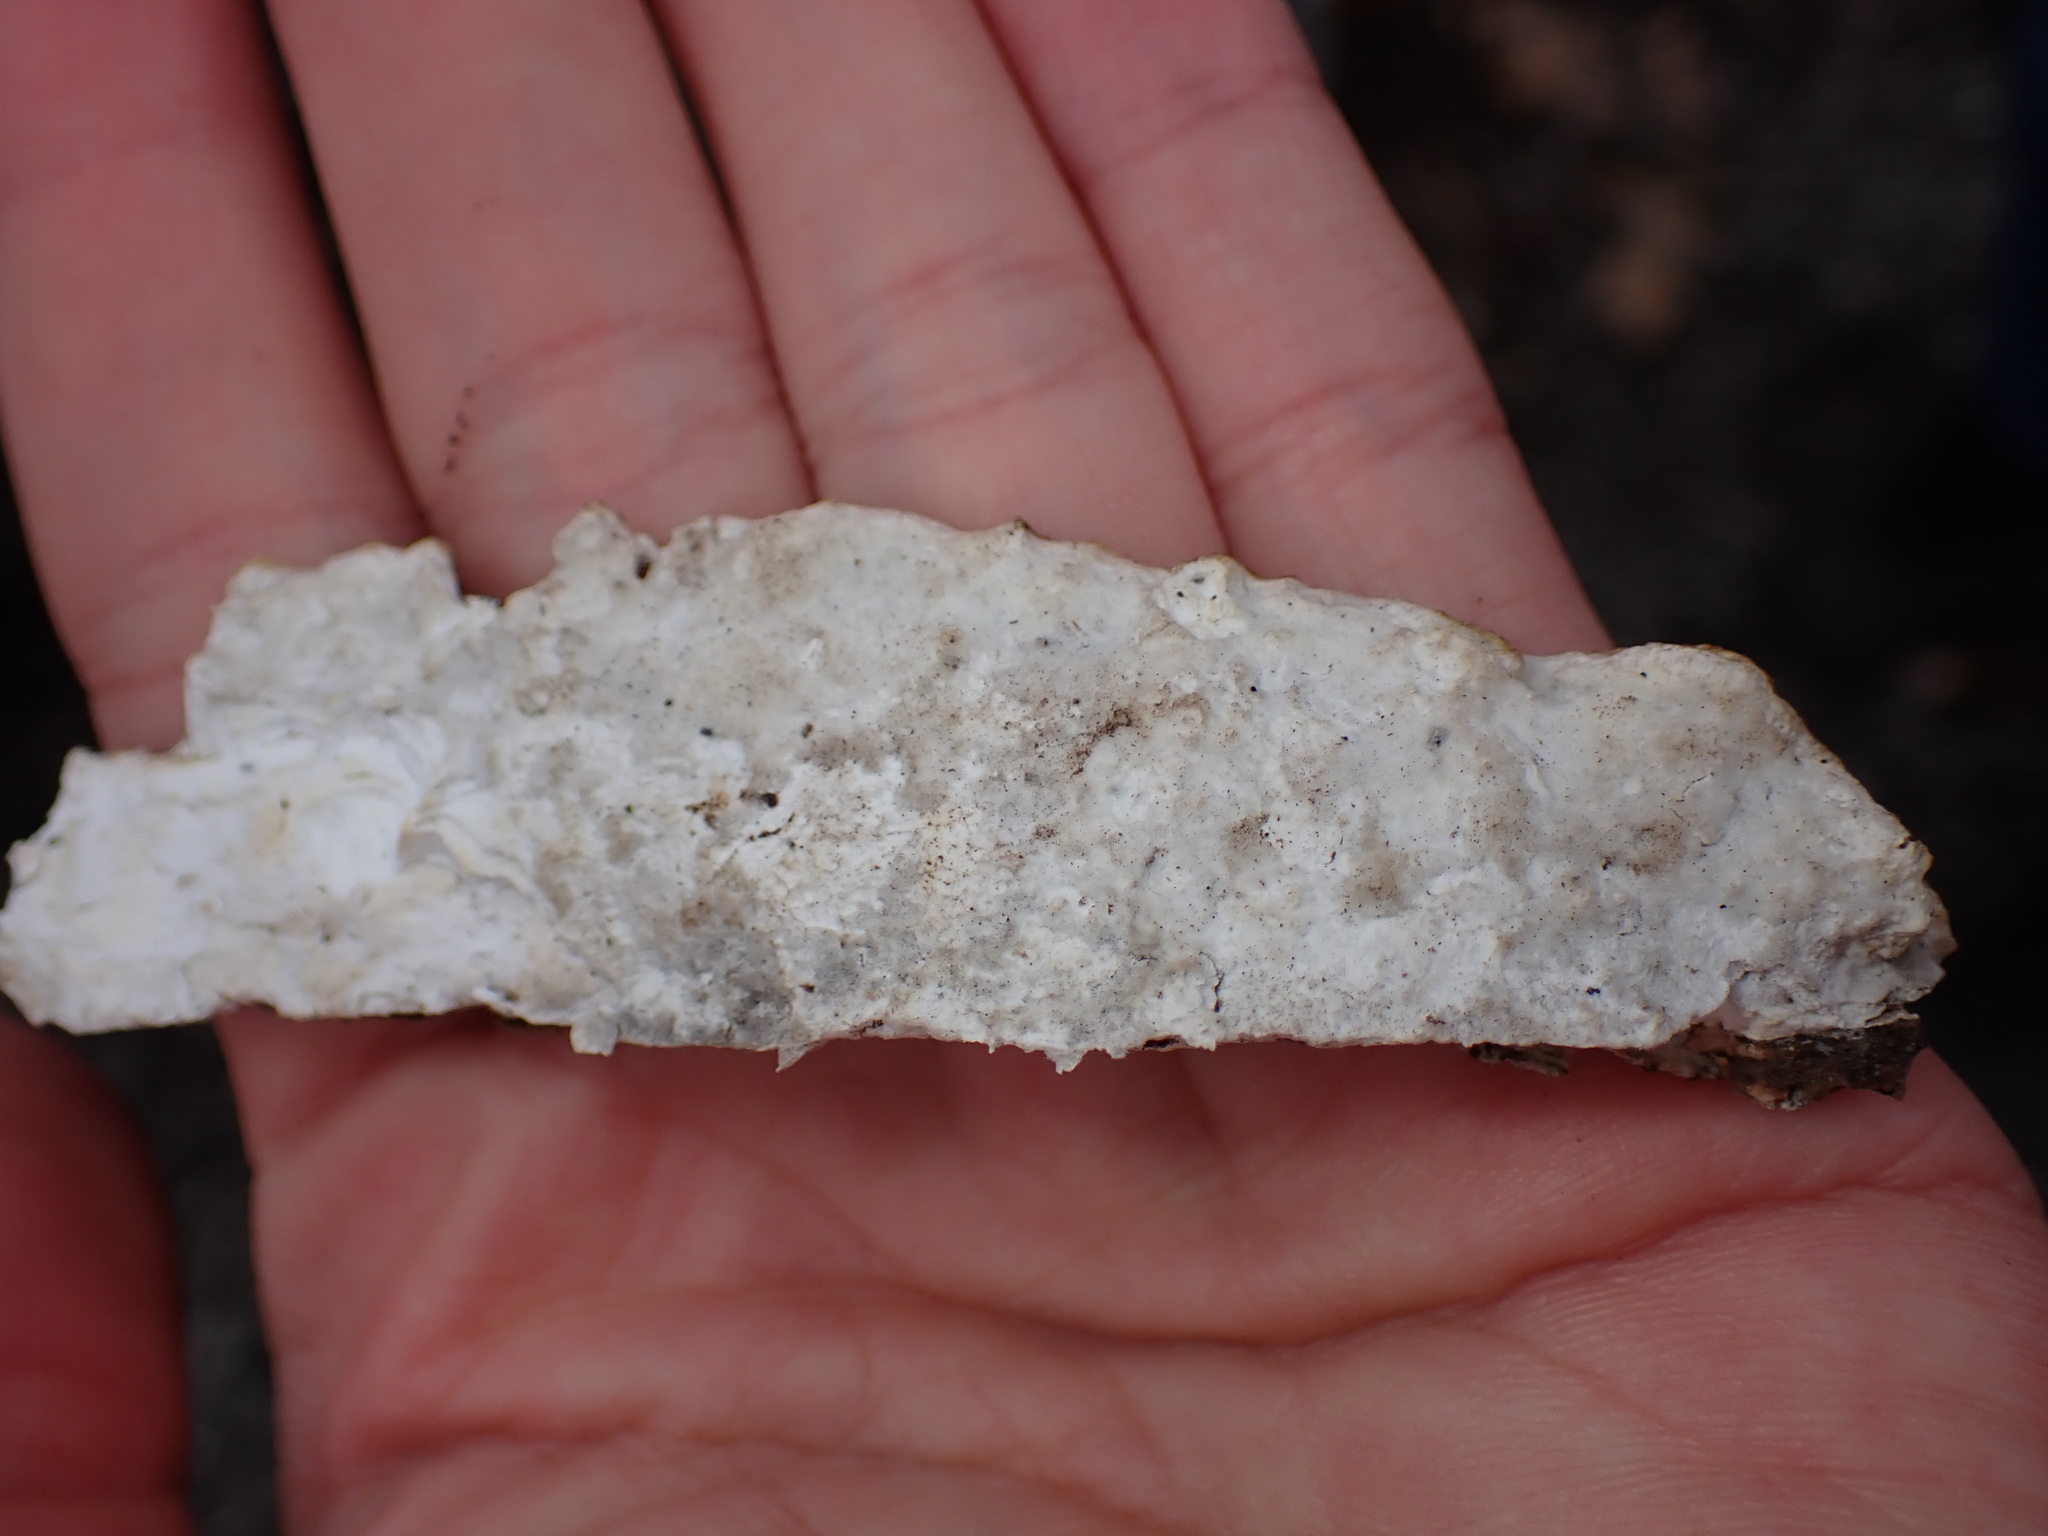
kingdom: Fungi
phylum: Basidiomycota
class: Agaricomycetes
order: Polyporales
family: Irpicaceae
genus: Vitreoporus
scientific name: Vitreoporus dichrous
